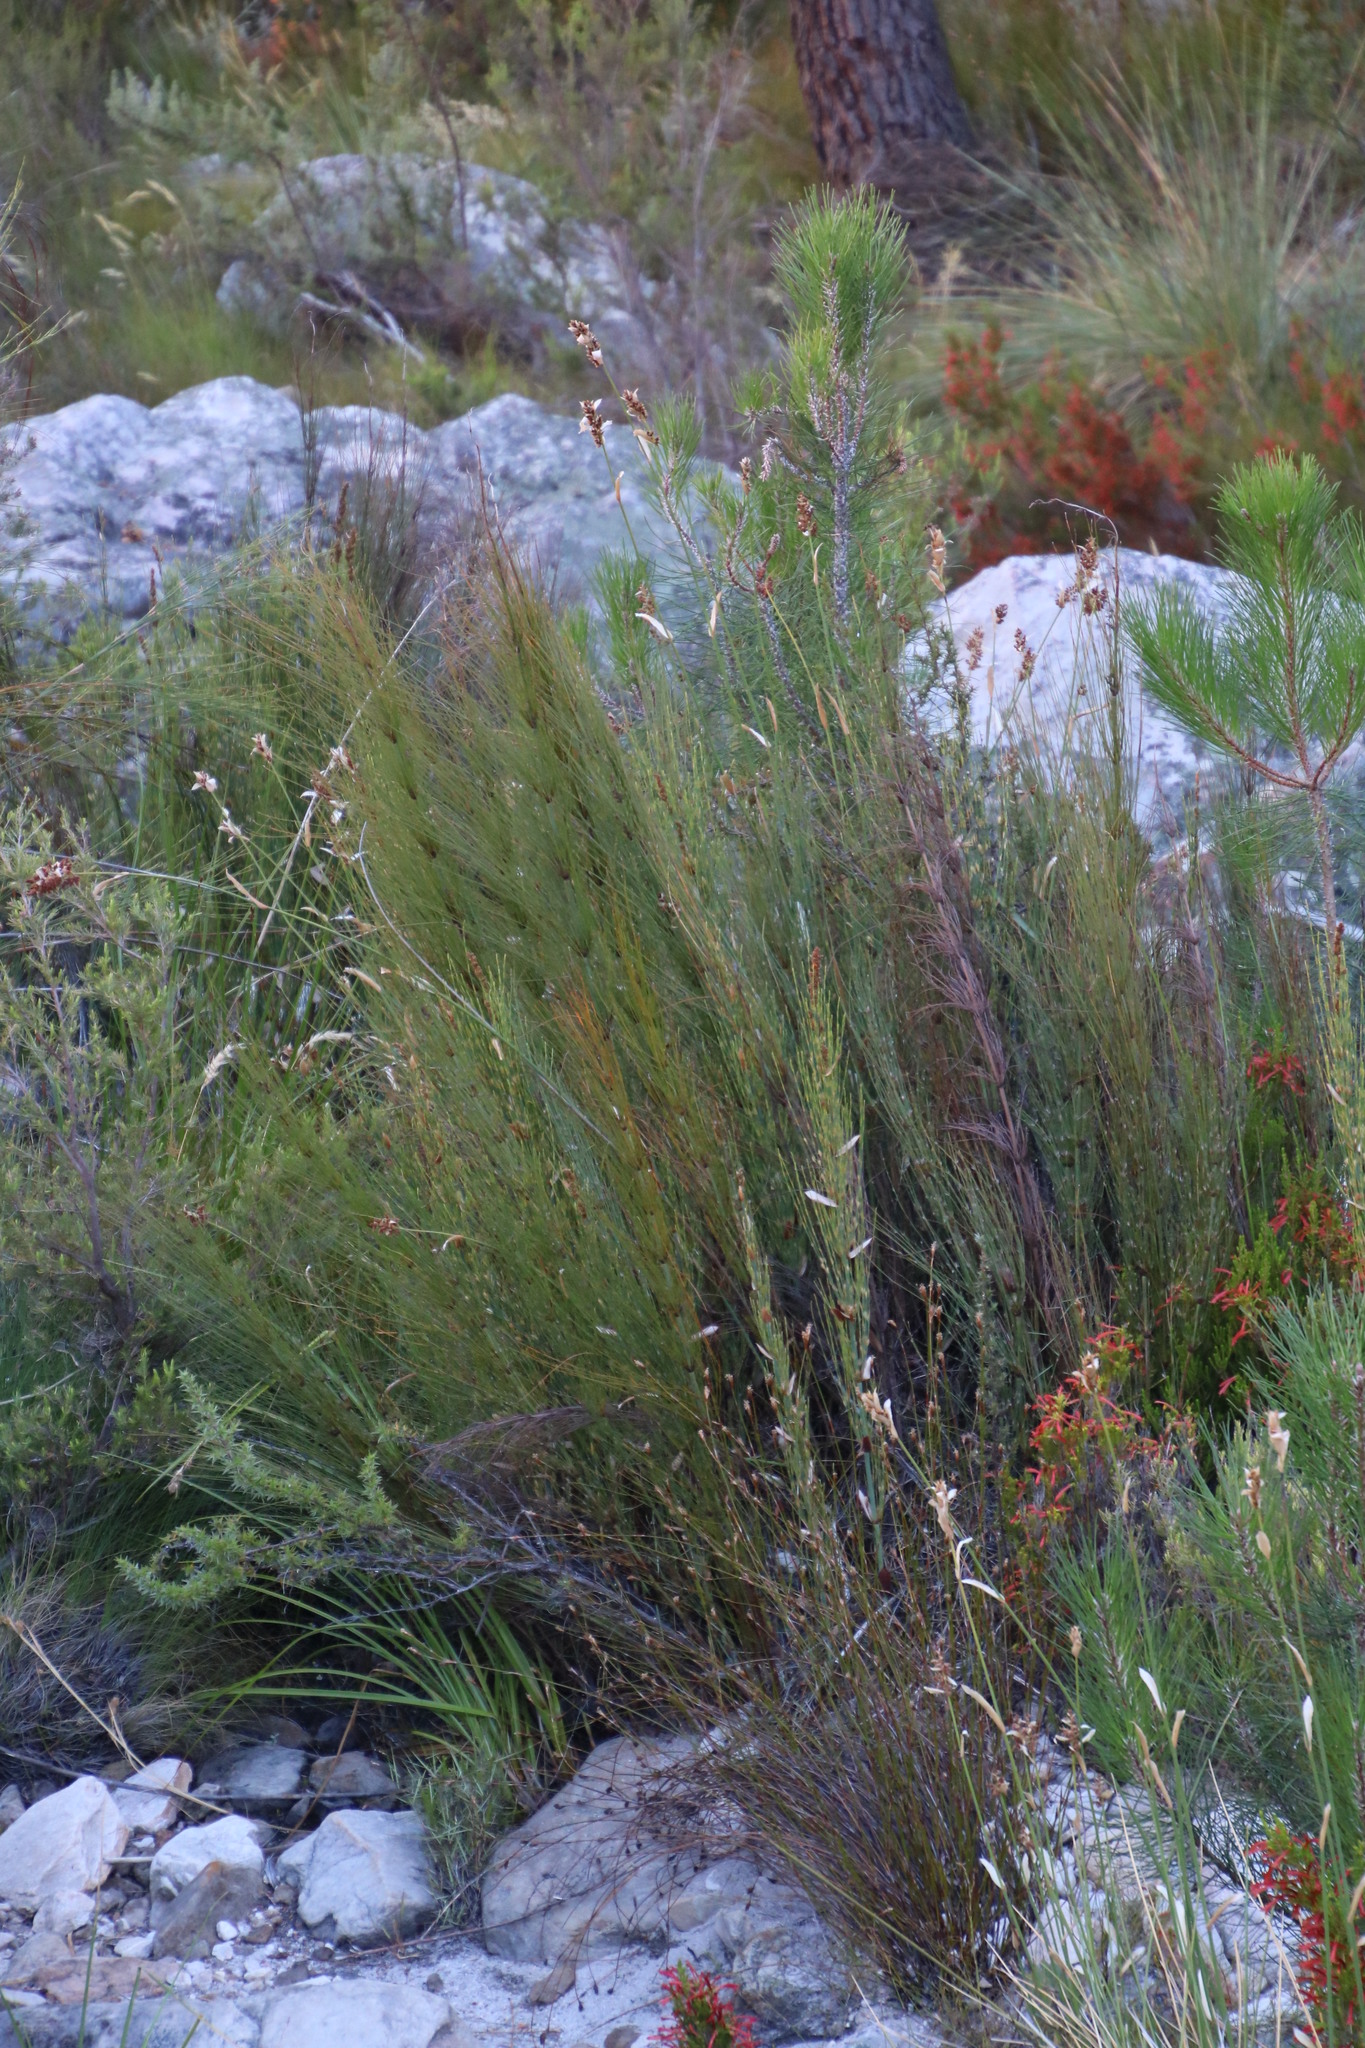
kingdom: Plantae
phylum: Tracheophyta
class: Liliopsida
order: Poales
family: Restionaceae
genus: Elegia
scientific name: Elegia capensis
